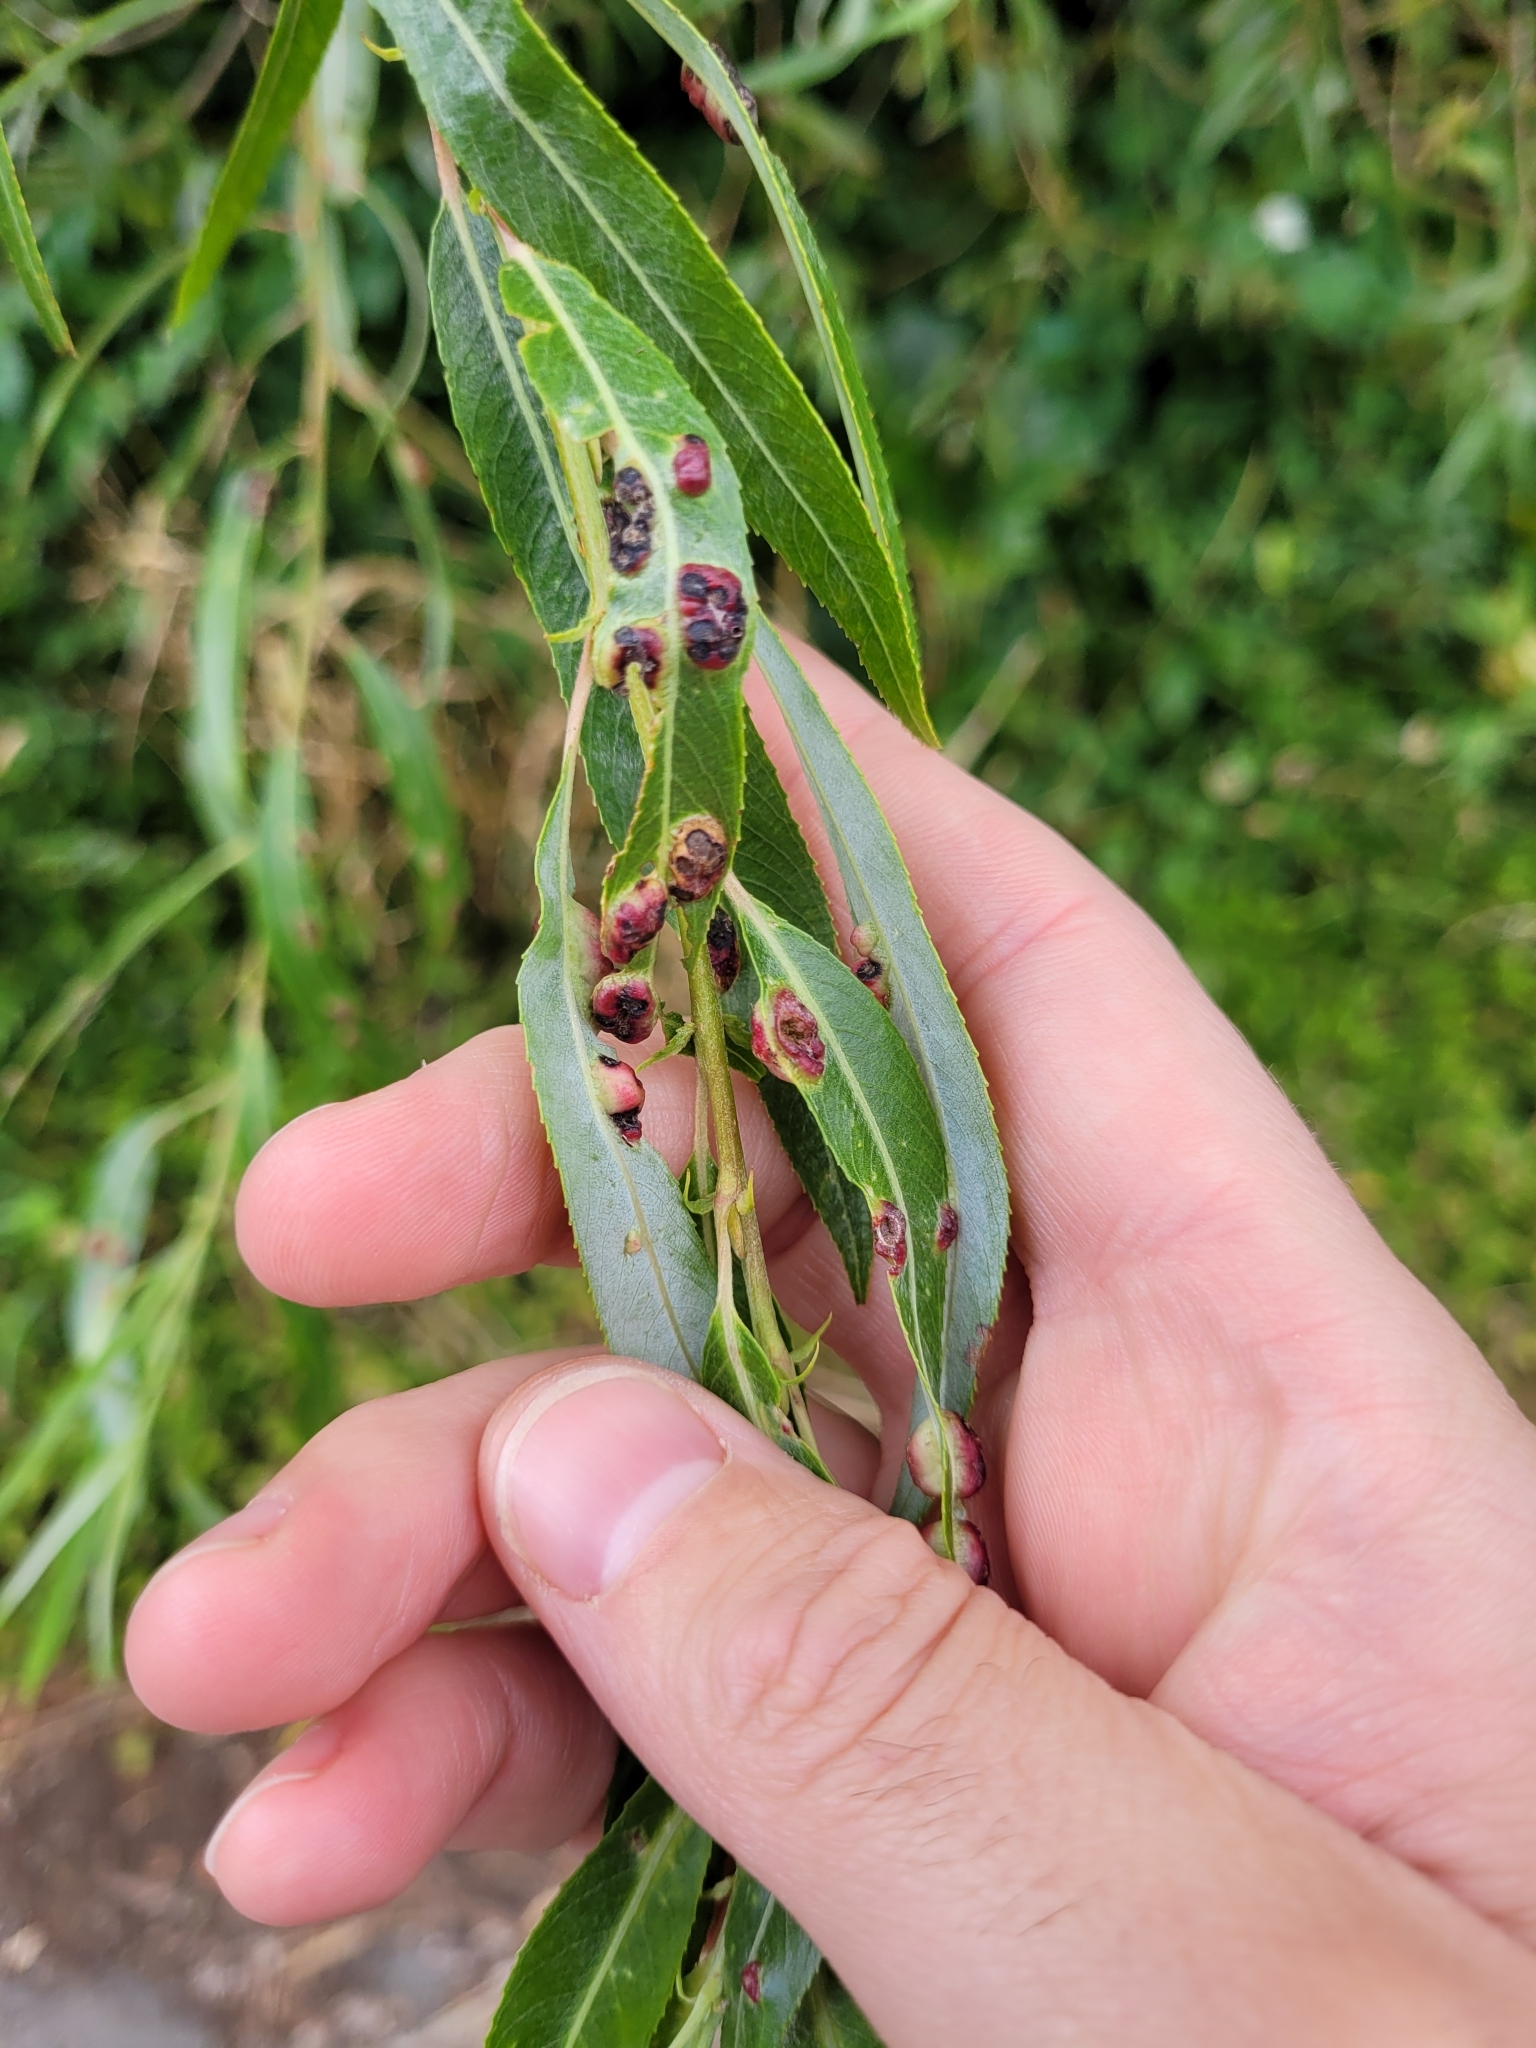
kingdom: Animalia
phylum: Arthropoda
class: Insecta
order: Hymenoptera
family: Tenthredinidae
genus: Pontania
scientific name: Pontania proxima
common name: Common sawfly
